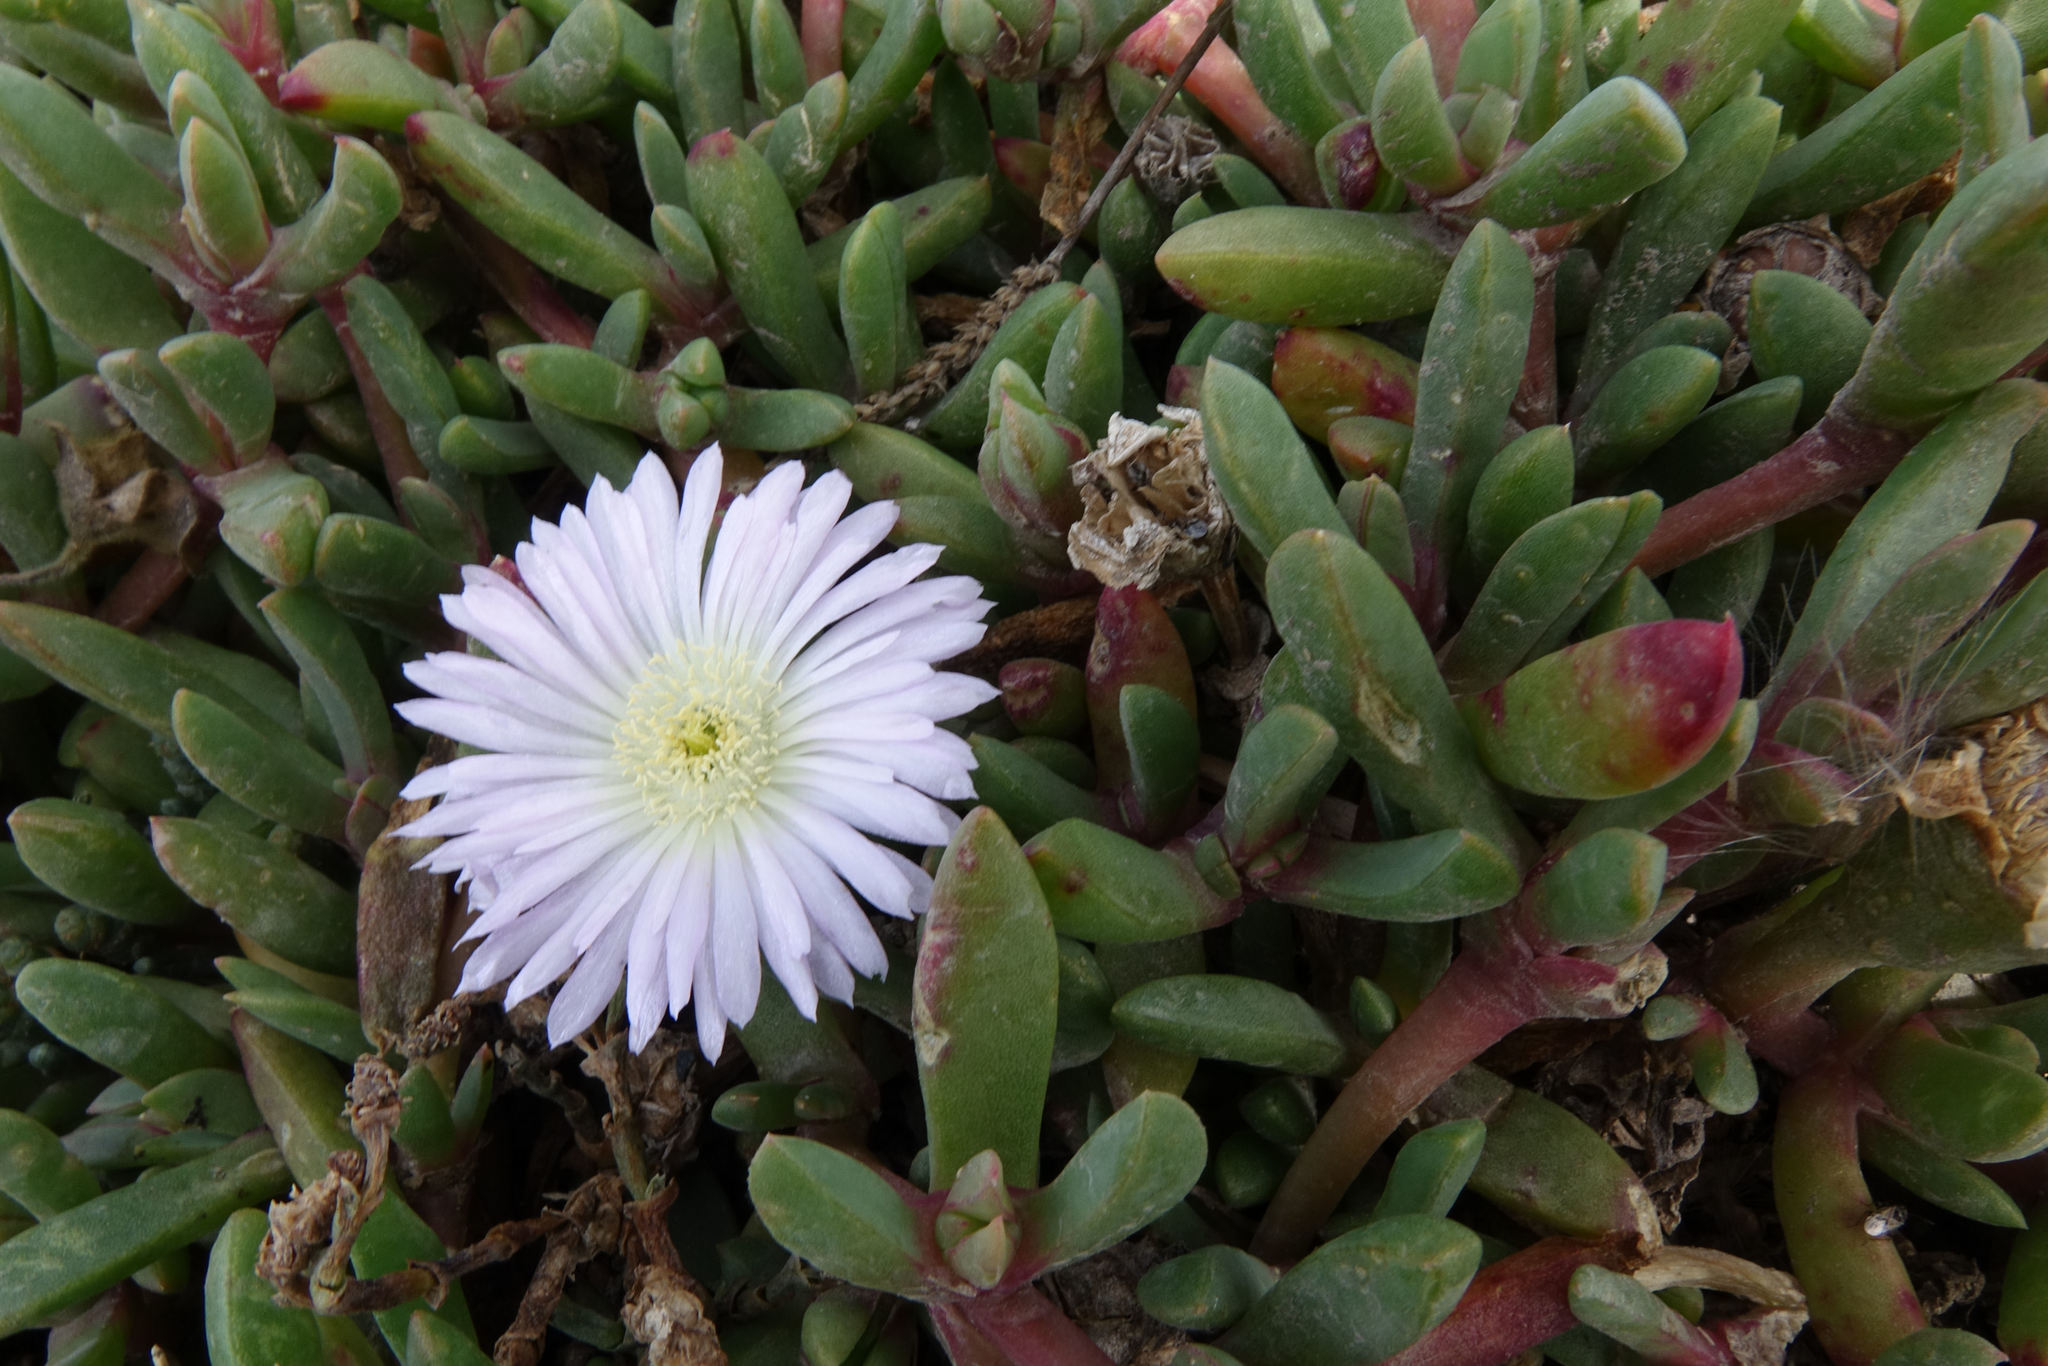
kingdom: Plantae
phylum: Tracheophyta
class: Magnoliopsida
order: Caryophyllales
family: Aizoaceae
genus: Disphyma
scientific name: Disphyma australe
